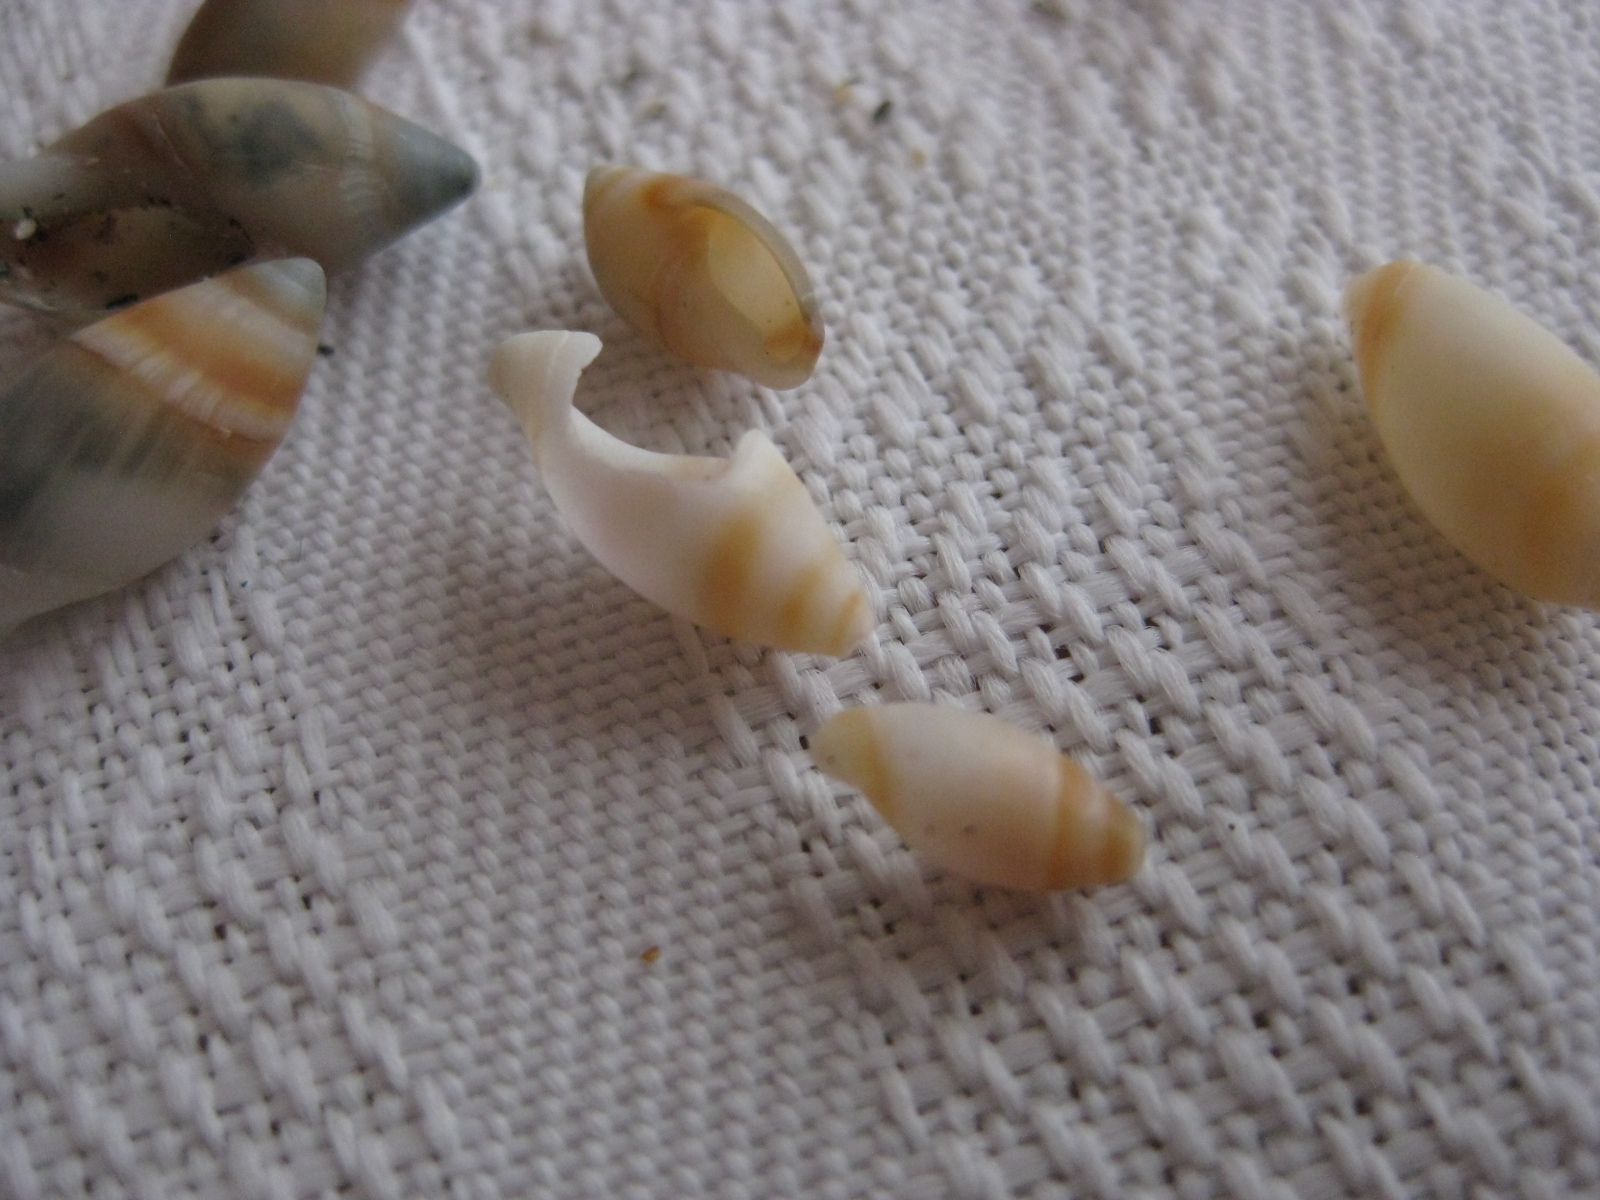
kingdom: Animalia
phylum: Mollusca
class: Gastropoda
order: Neogastropoda
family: Ancillariidae
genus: Amalda
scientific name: Amalda novaezelandiae
